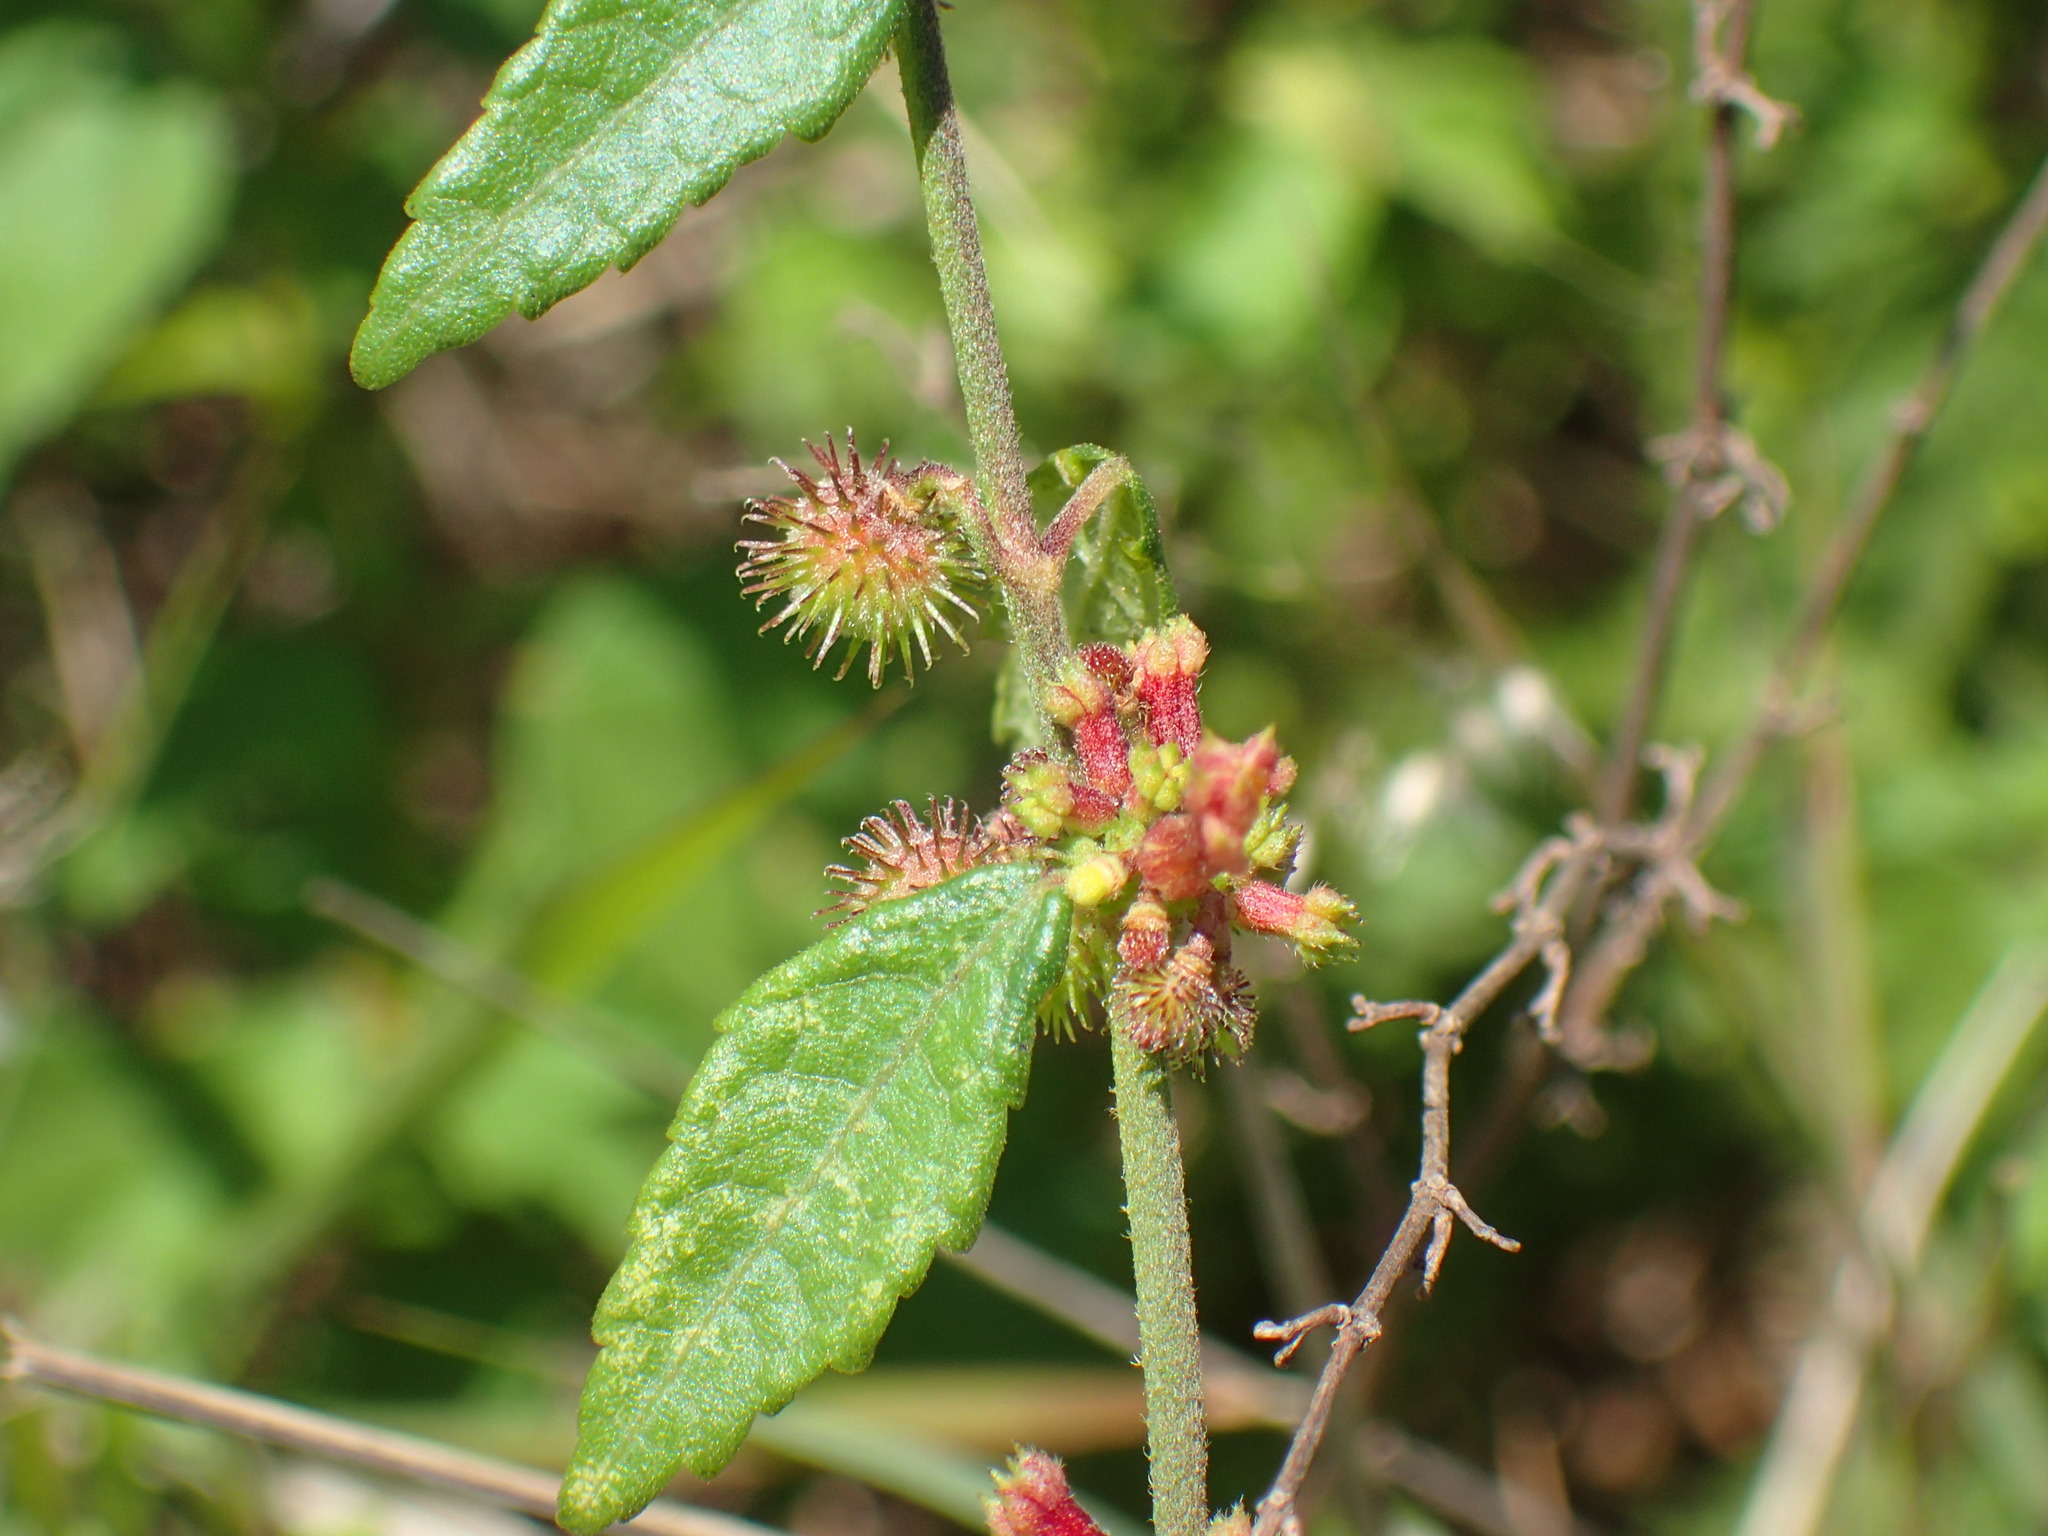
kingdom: Plantae
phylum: Tracheophyta
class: Magnoliopsida
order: Malvales
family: Malvaceae
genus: Triumfetta
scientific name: Triumfetta rhomboidea
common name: Diamond burbark
